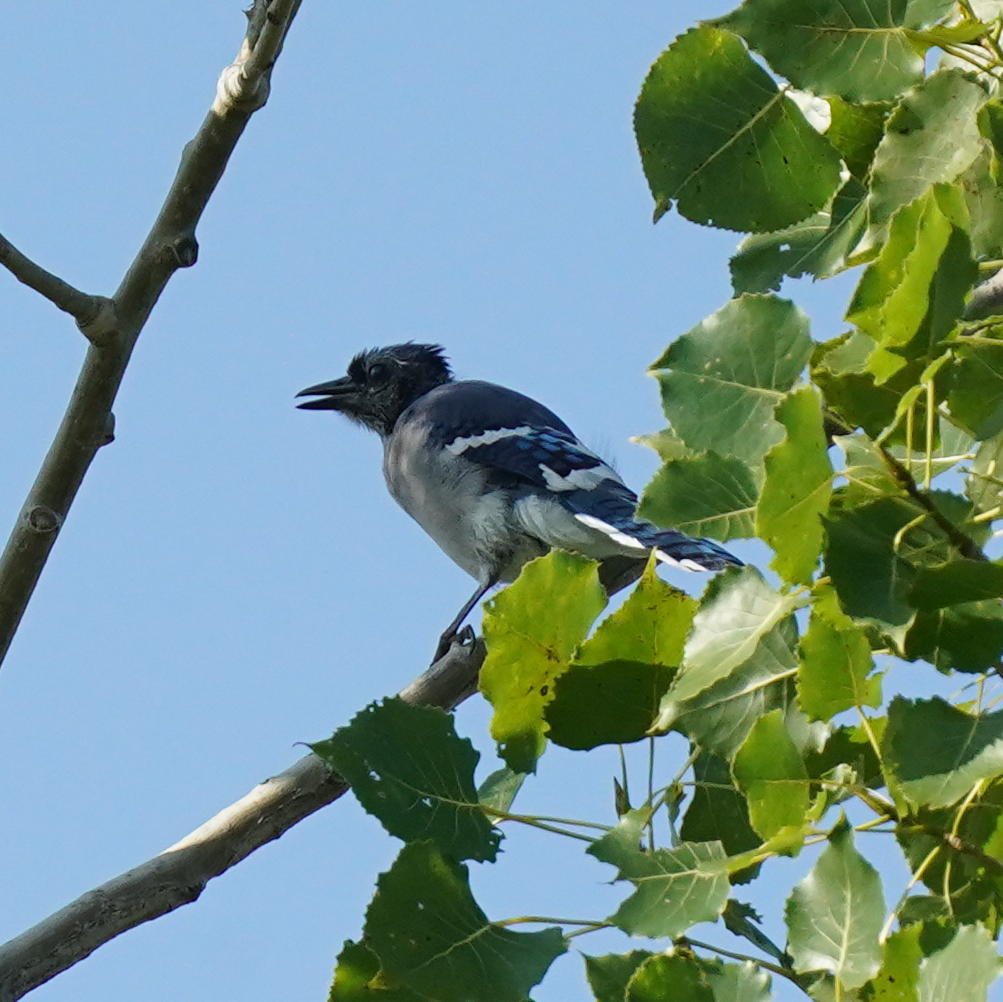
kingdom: Animalia
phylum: Chordata
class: Aves
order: Passeriformes
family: Corvidae
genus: Cyanocitta
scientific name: Cyanocitta cristata
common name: Blue jay
